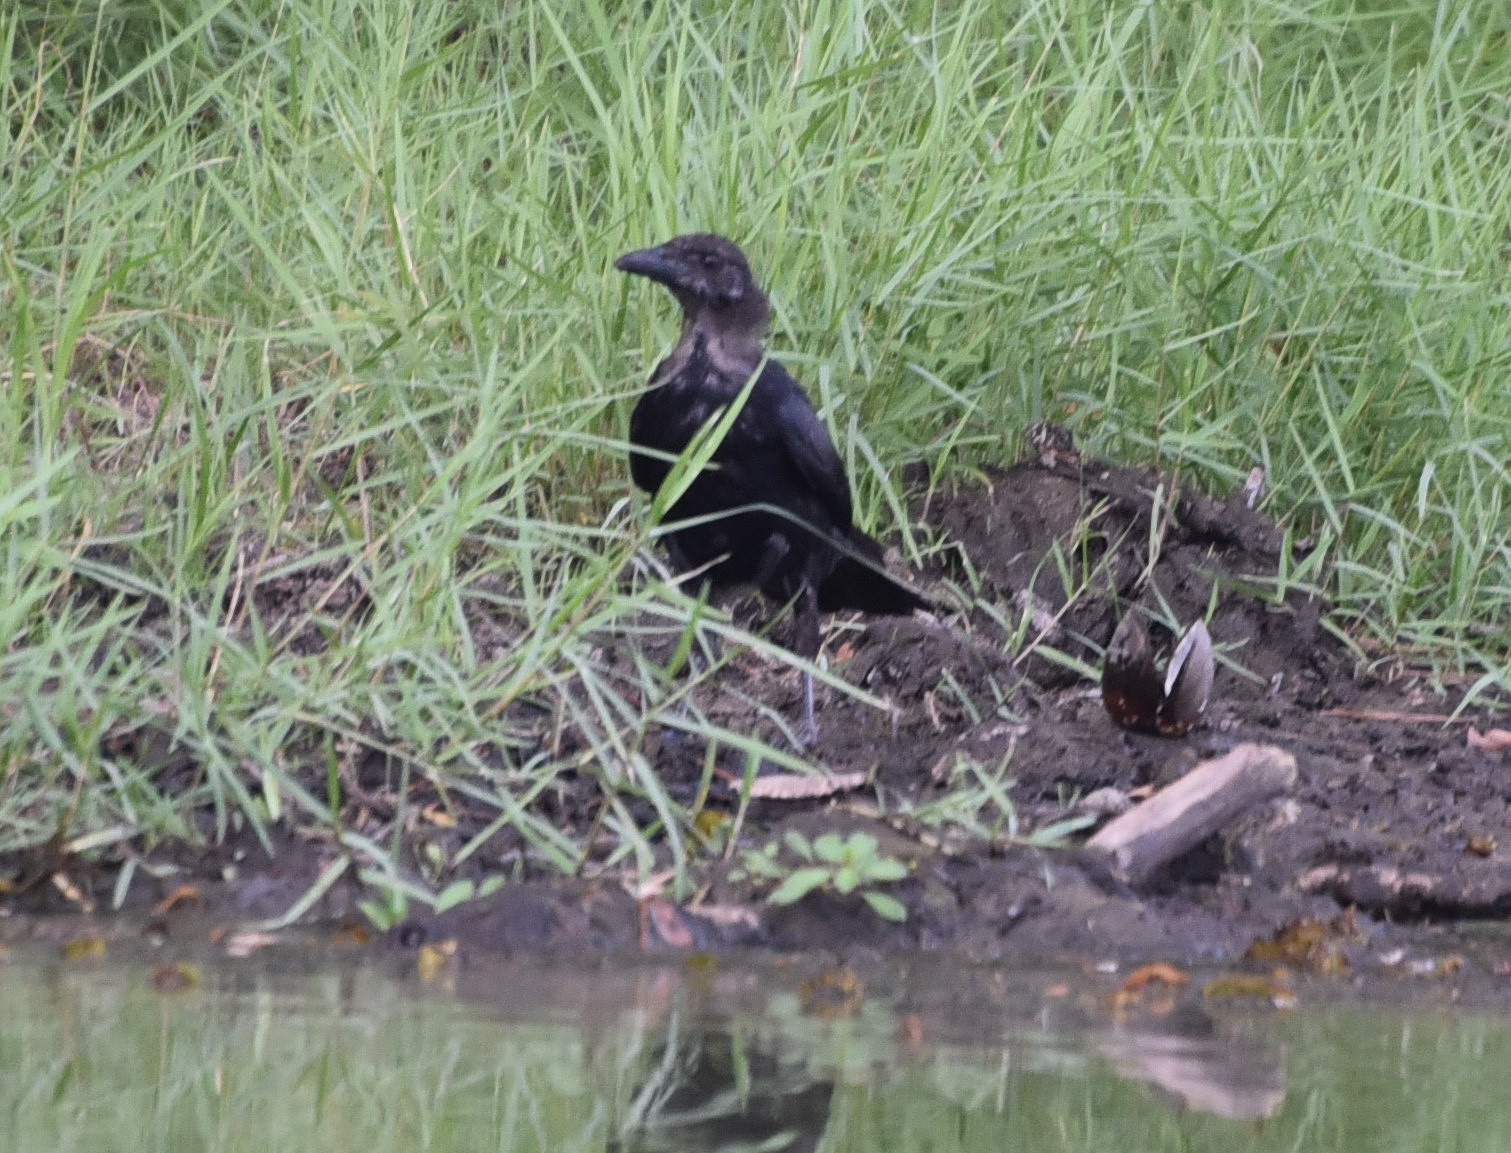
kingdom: Animalia
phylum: Chordata
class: Aves
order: Passeriformes
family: Corvidae
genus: Corvus
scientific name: Corvus brachyrhynchos
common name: American crow
